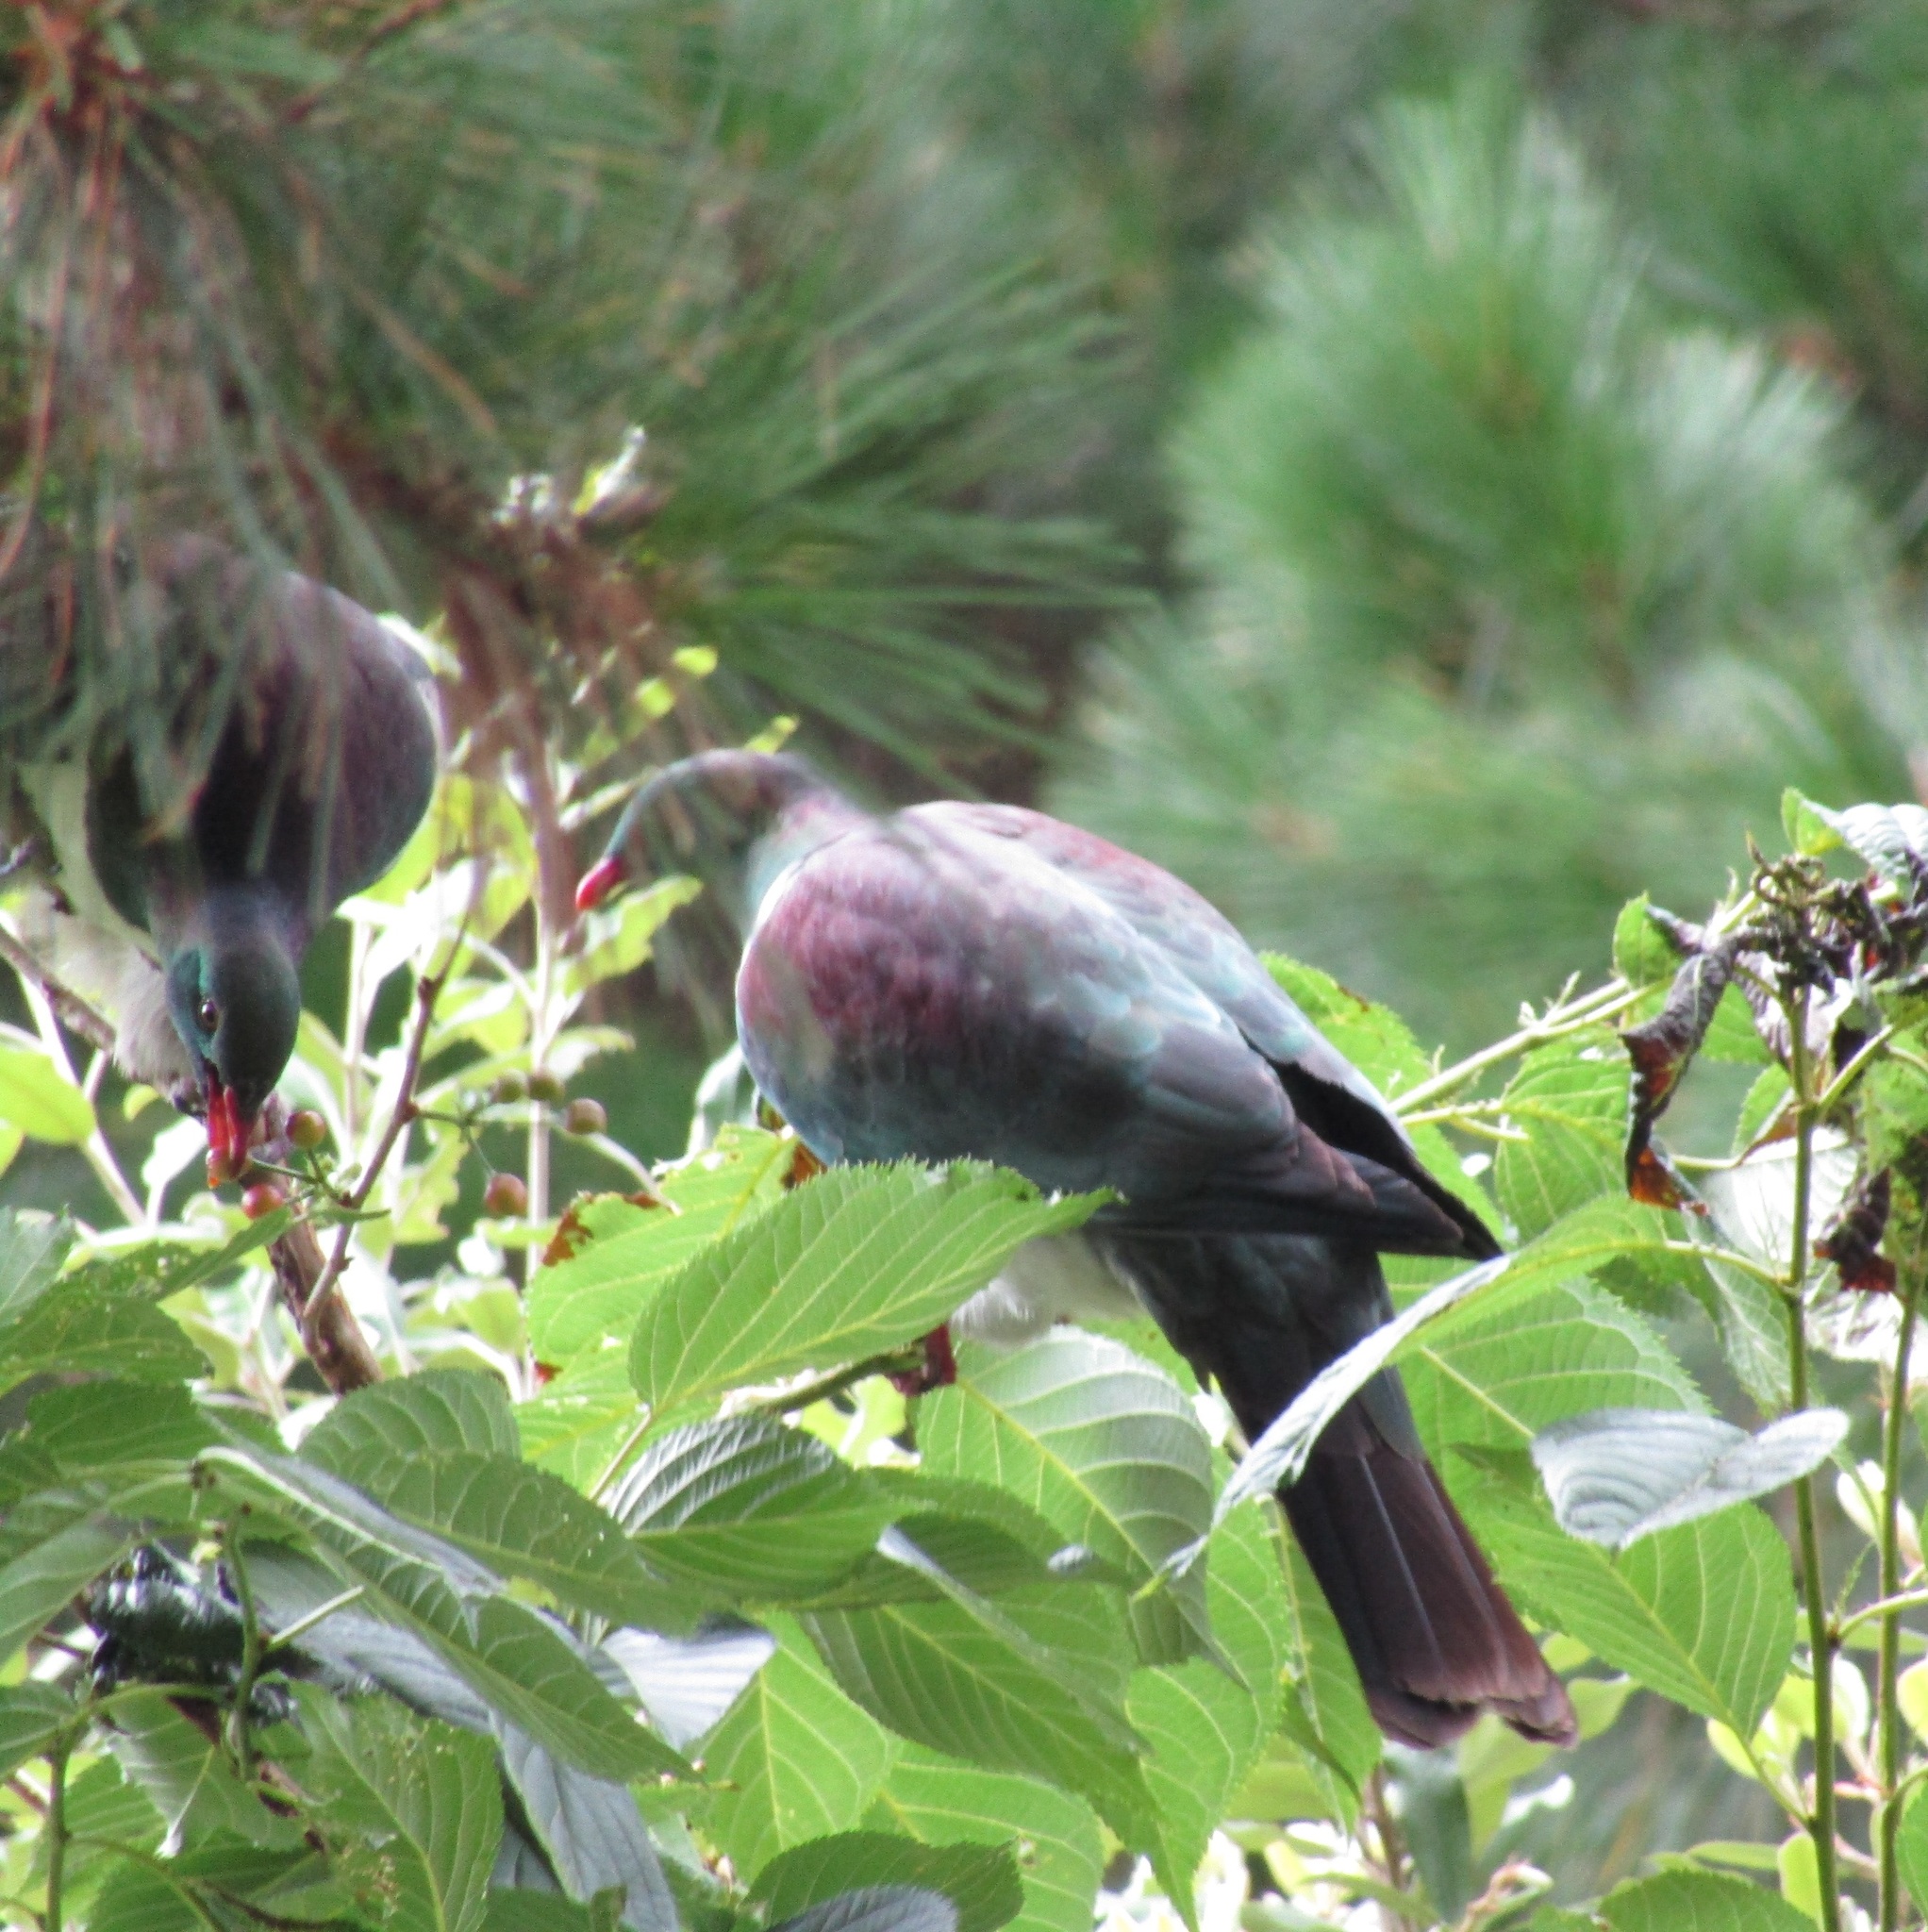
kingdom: Plantae
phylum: Tracheophyta
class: Magnoliopsida
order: Rosales
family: Rosaceae
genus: Prunus
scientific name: Prunus serrulata
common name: Japanese cherry
